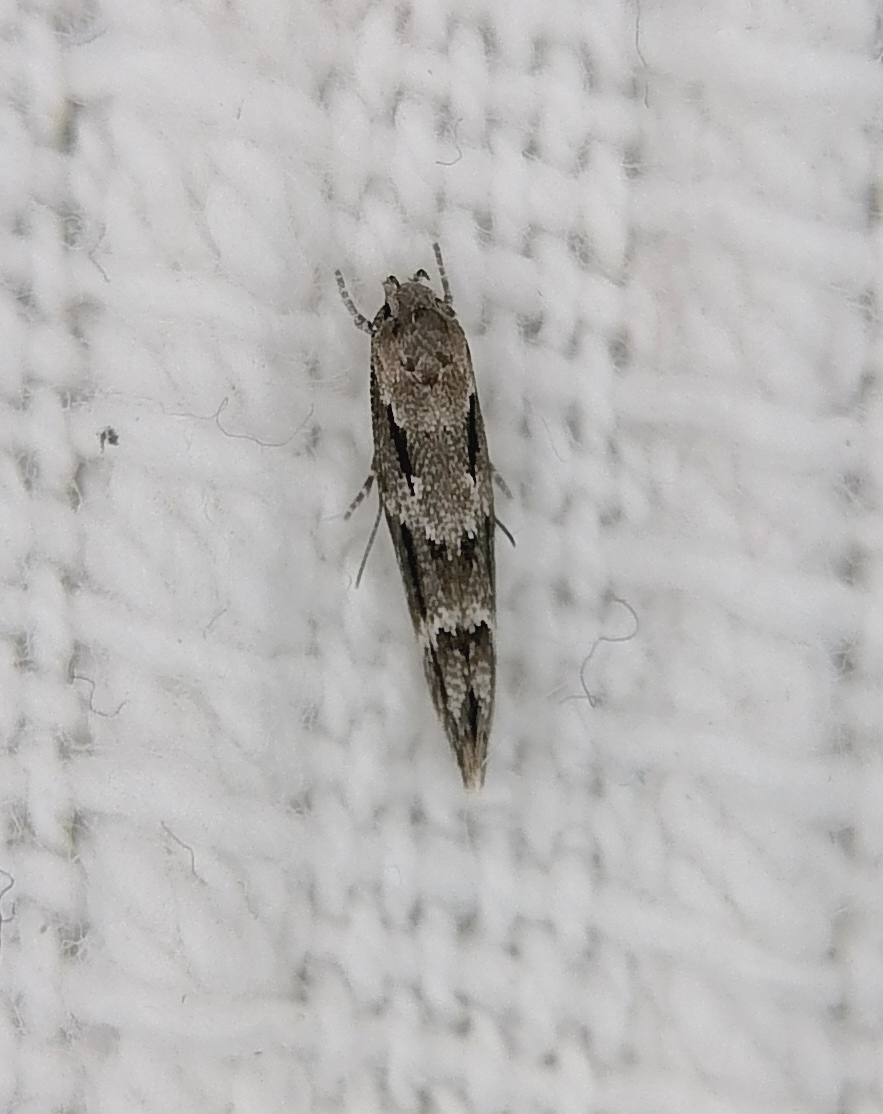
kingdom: Animalia
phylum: Arthropoda
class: Insecta
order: Lepidoptera
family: Momphidae
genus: Mompha
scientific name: Mompha subbistrigella
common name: Garden cosmet
